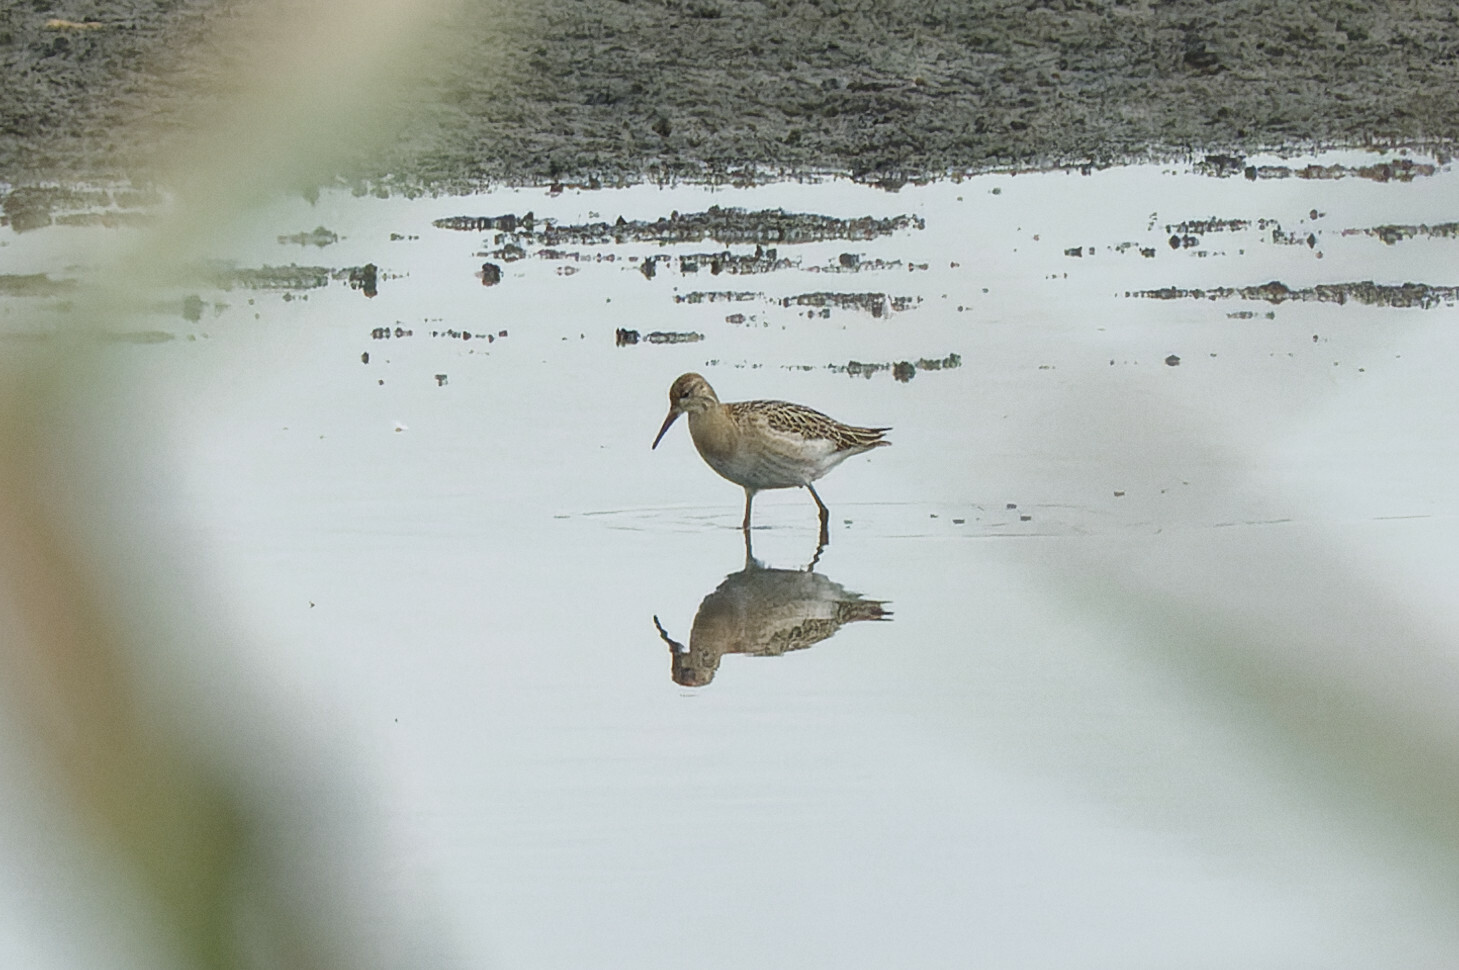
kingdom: Animalia
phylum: Chordata
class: Aves
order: Charadriiformes
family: Scolopacidae
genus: Calidris
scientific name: Calidris pugnax
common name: Ruff
